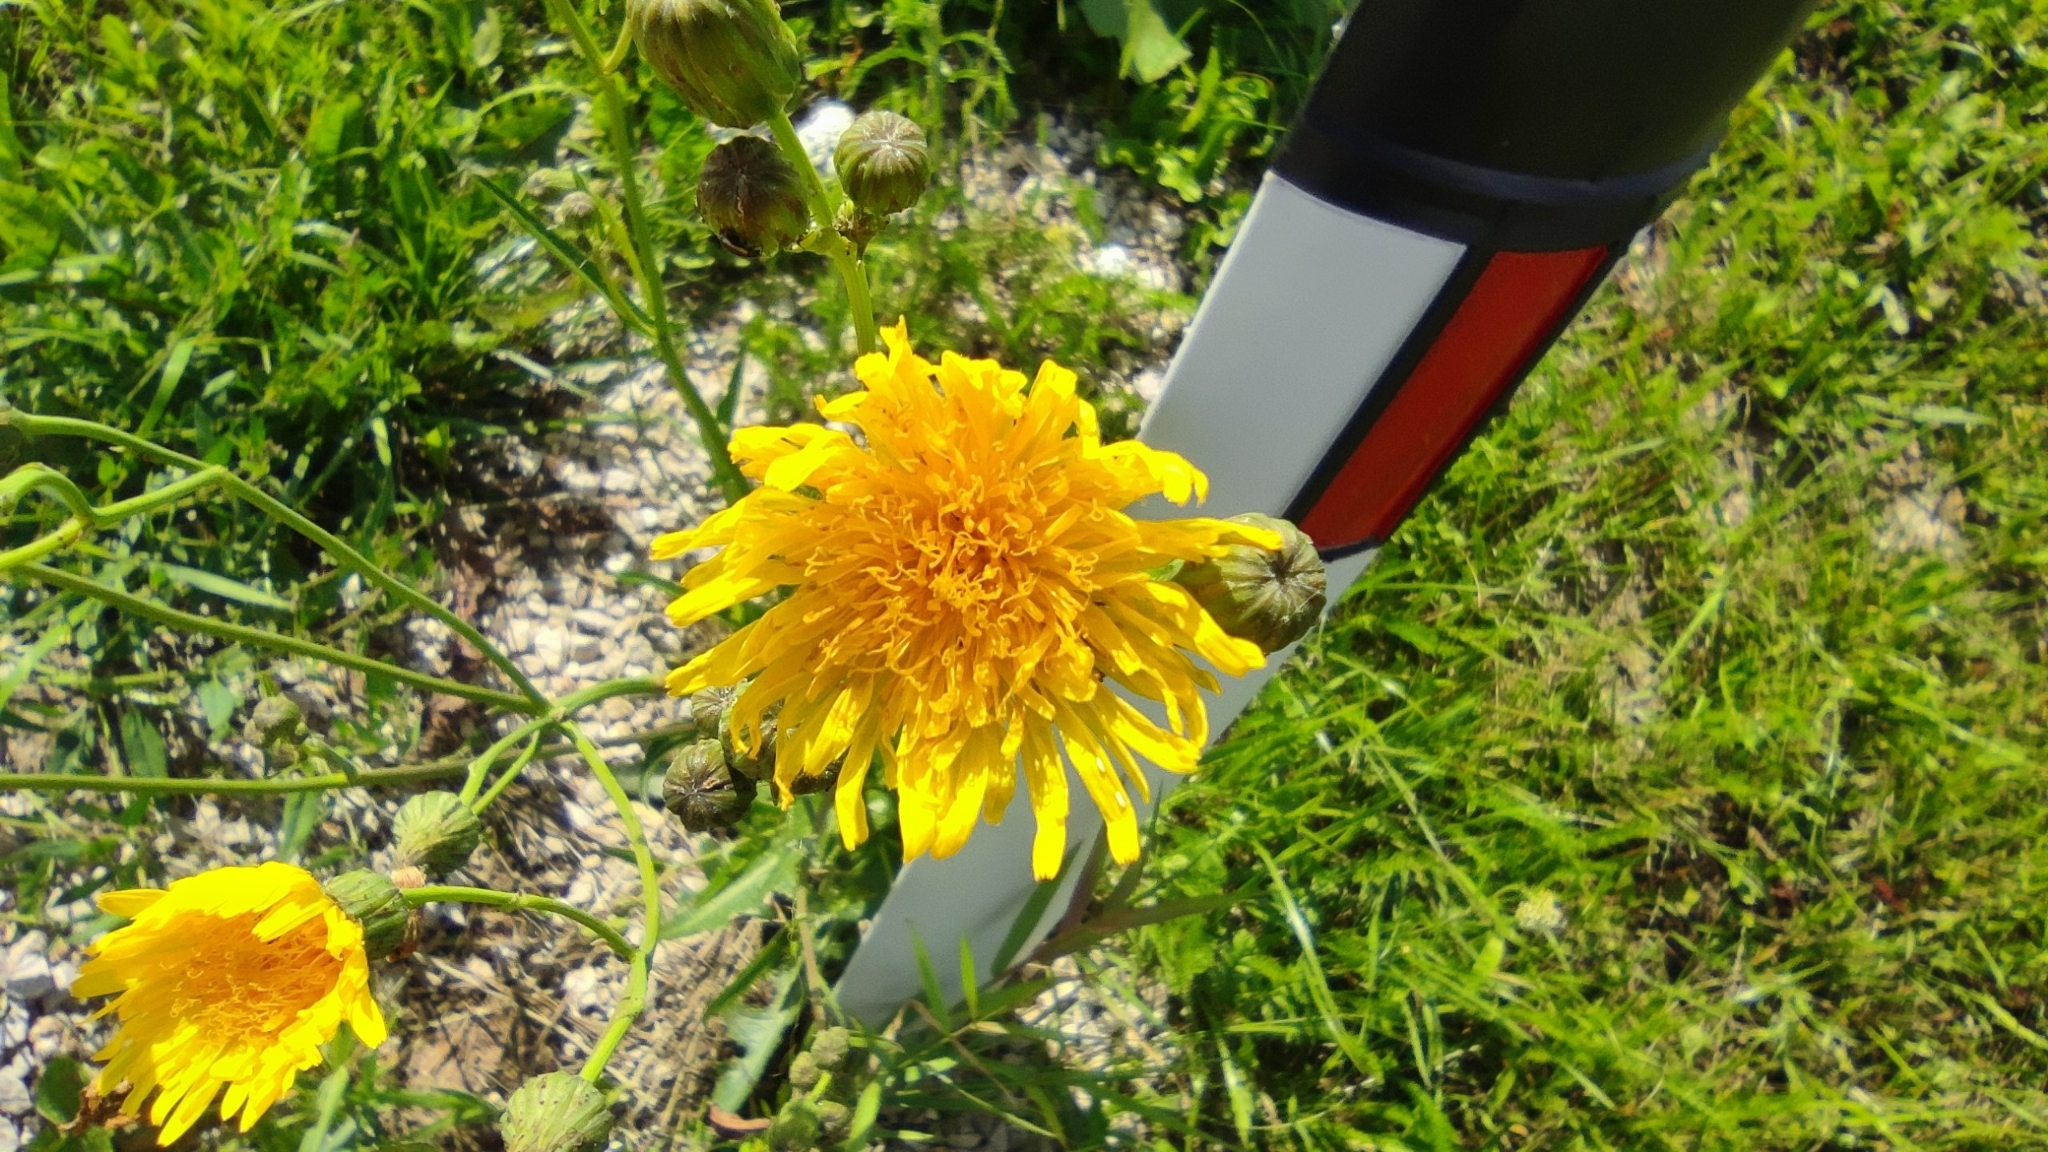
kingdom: Plantae
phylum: Tracheophyta
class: Magnoliopsida
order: Asterales
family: Asteraceae
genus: Sonchus
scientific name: Sonchus arvensis
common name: Perennial sow-thistle
